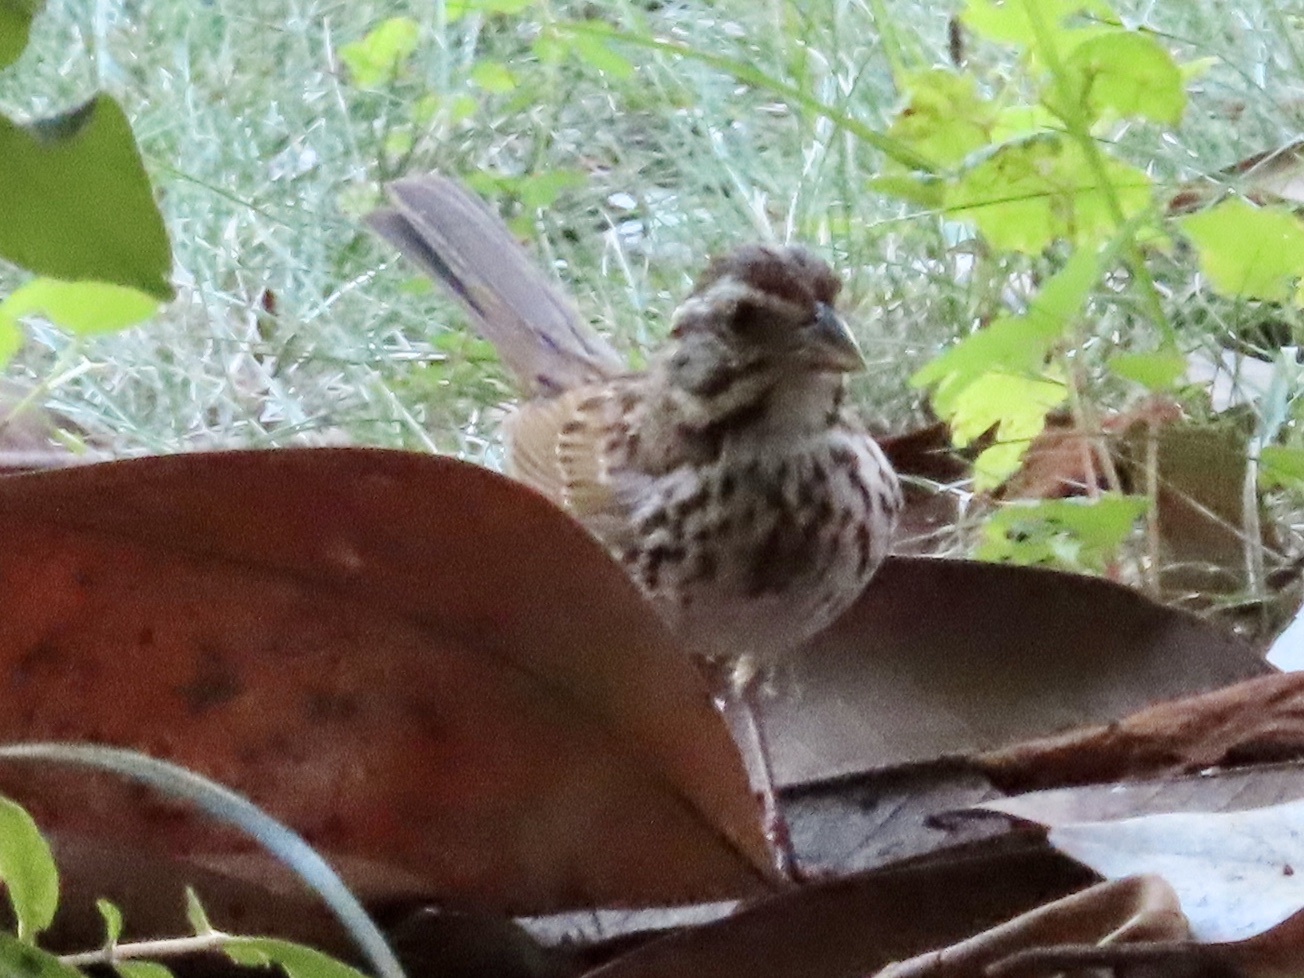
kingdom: Animalia
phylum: Chordata
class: Aves
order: Passeriformes
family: Passerellidae
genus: Melospiza
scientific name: Melospiza melodia
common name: Song sparrow
